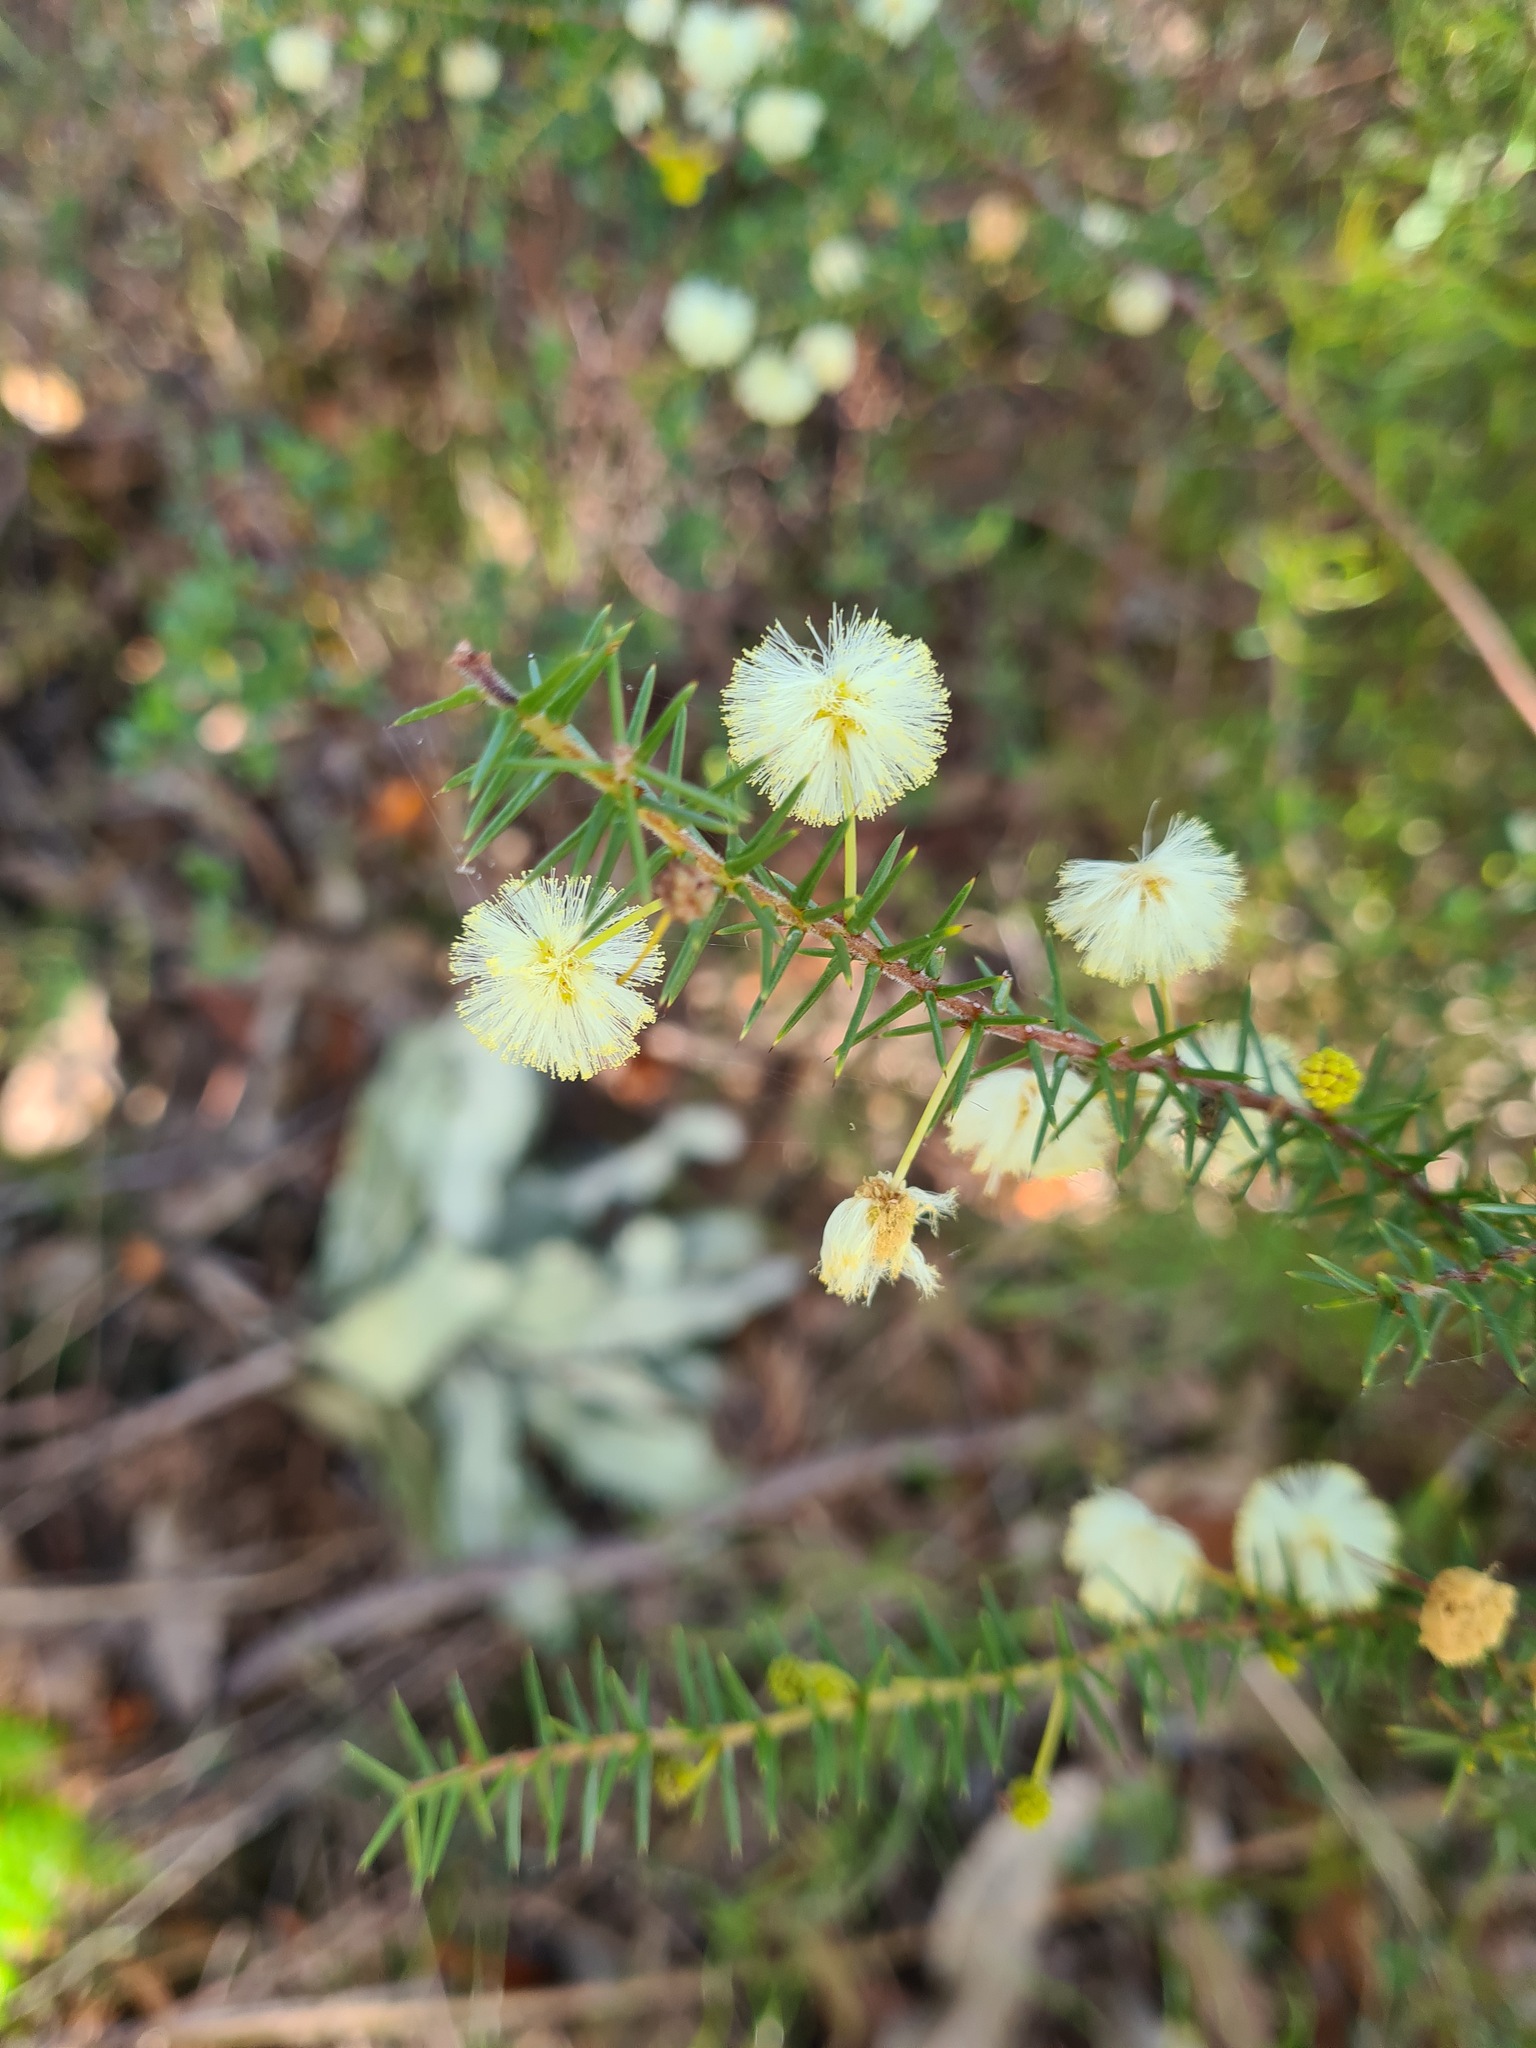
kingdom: Plantae
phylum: Tracheophyta
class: Magnoliopsida
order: Fabales
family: Fabaceae
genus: Acacia
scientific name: Acacia ulicifolia
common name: Juniper wattle
